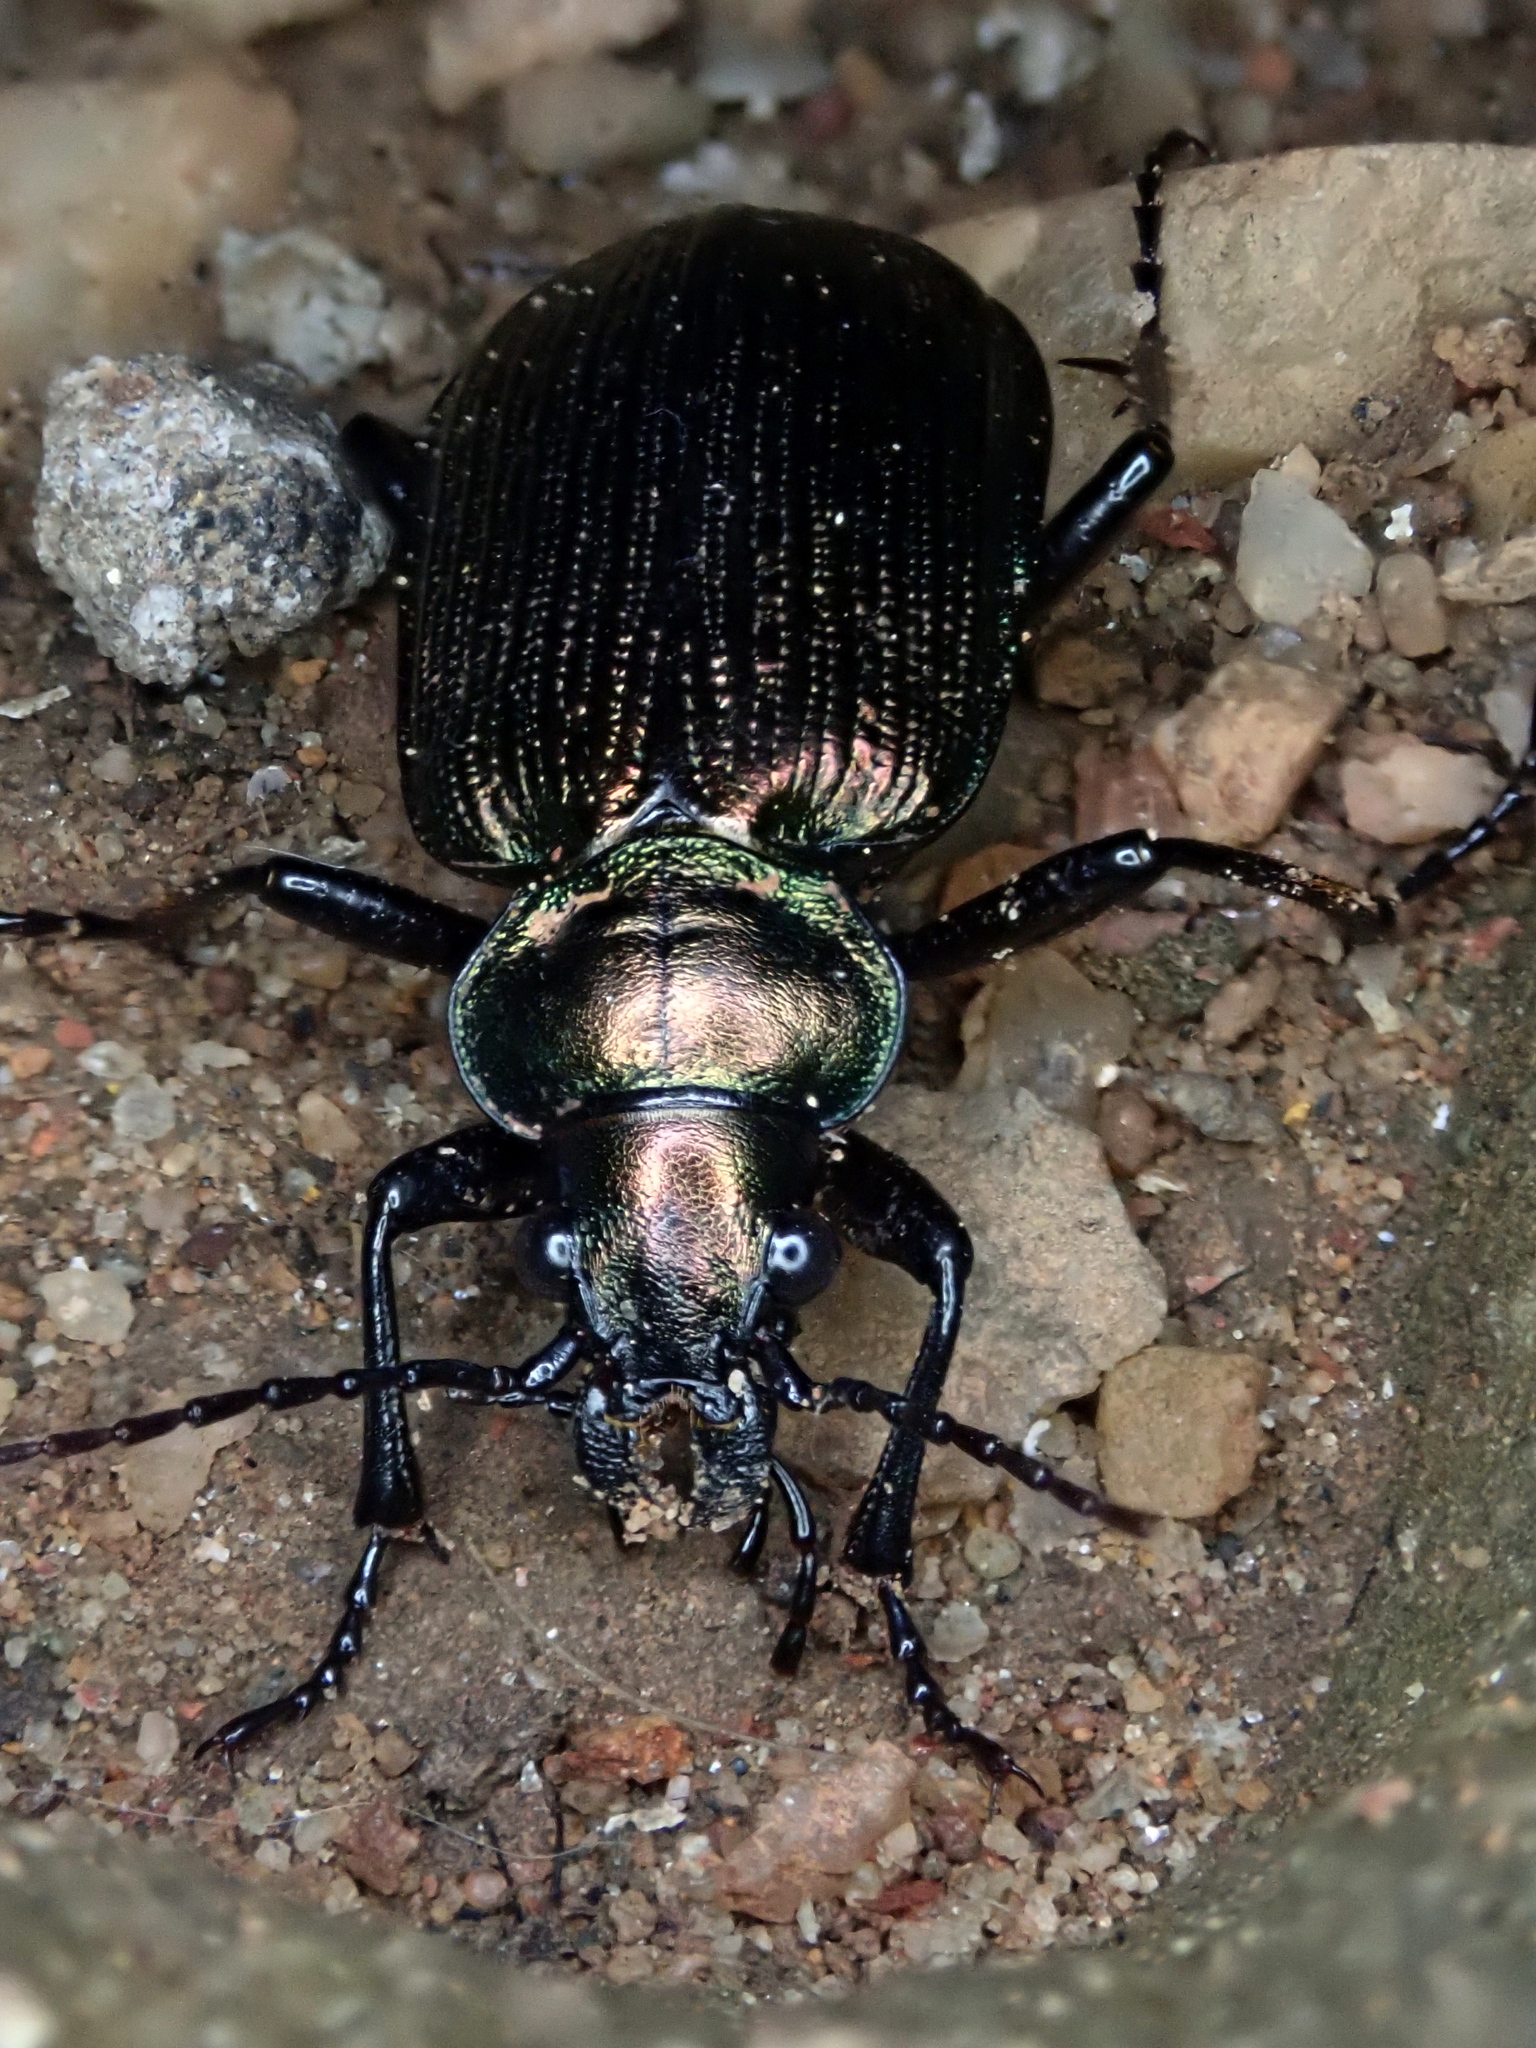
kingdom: Animalia
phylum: Arthropoda
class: Insecta
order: Coleoptera
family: Carabidae
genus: Calosoma
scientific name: Calosoma alternans
